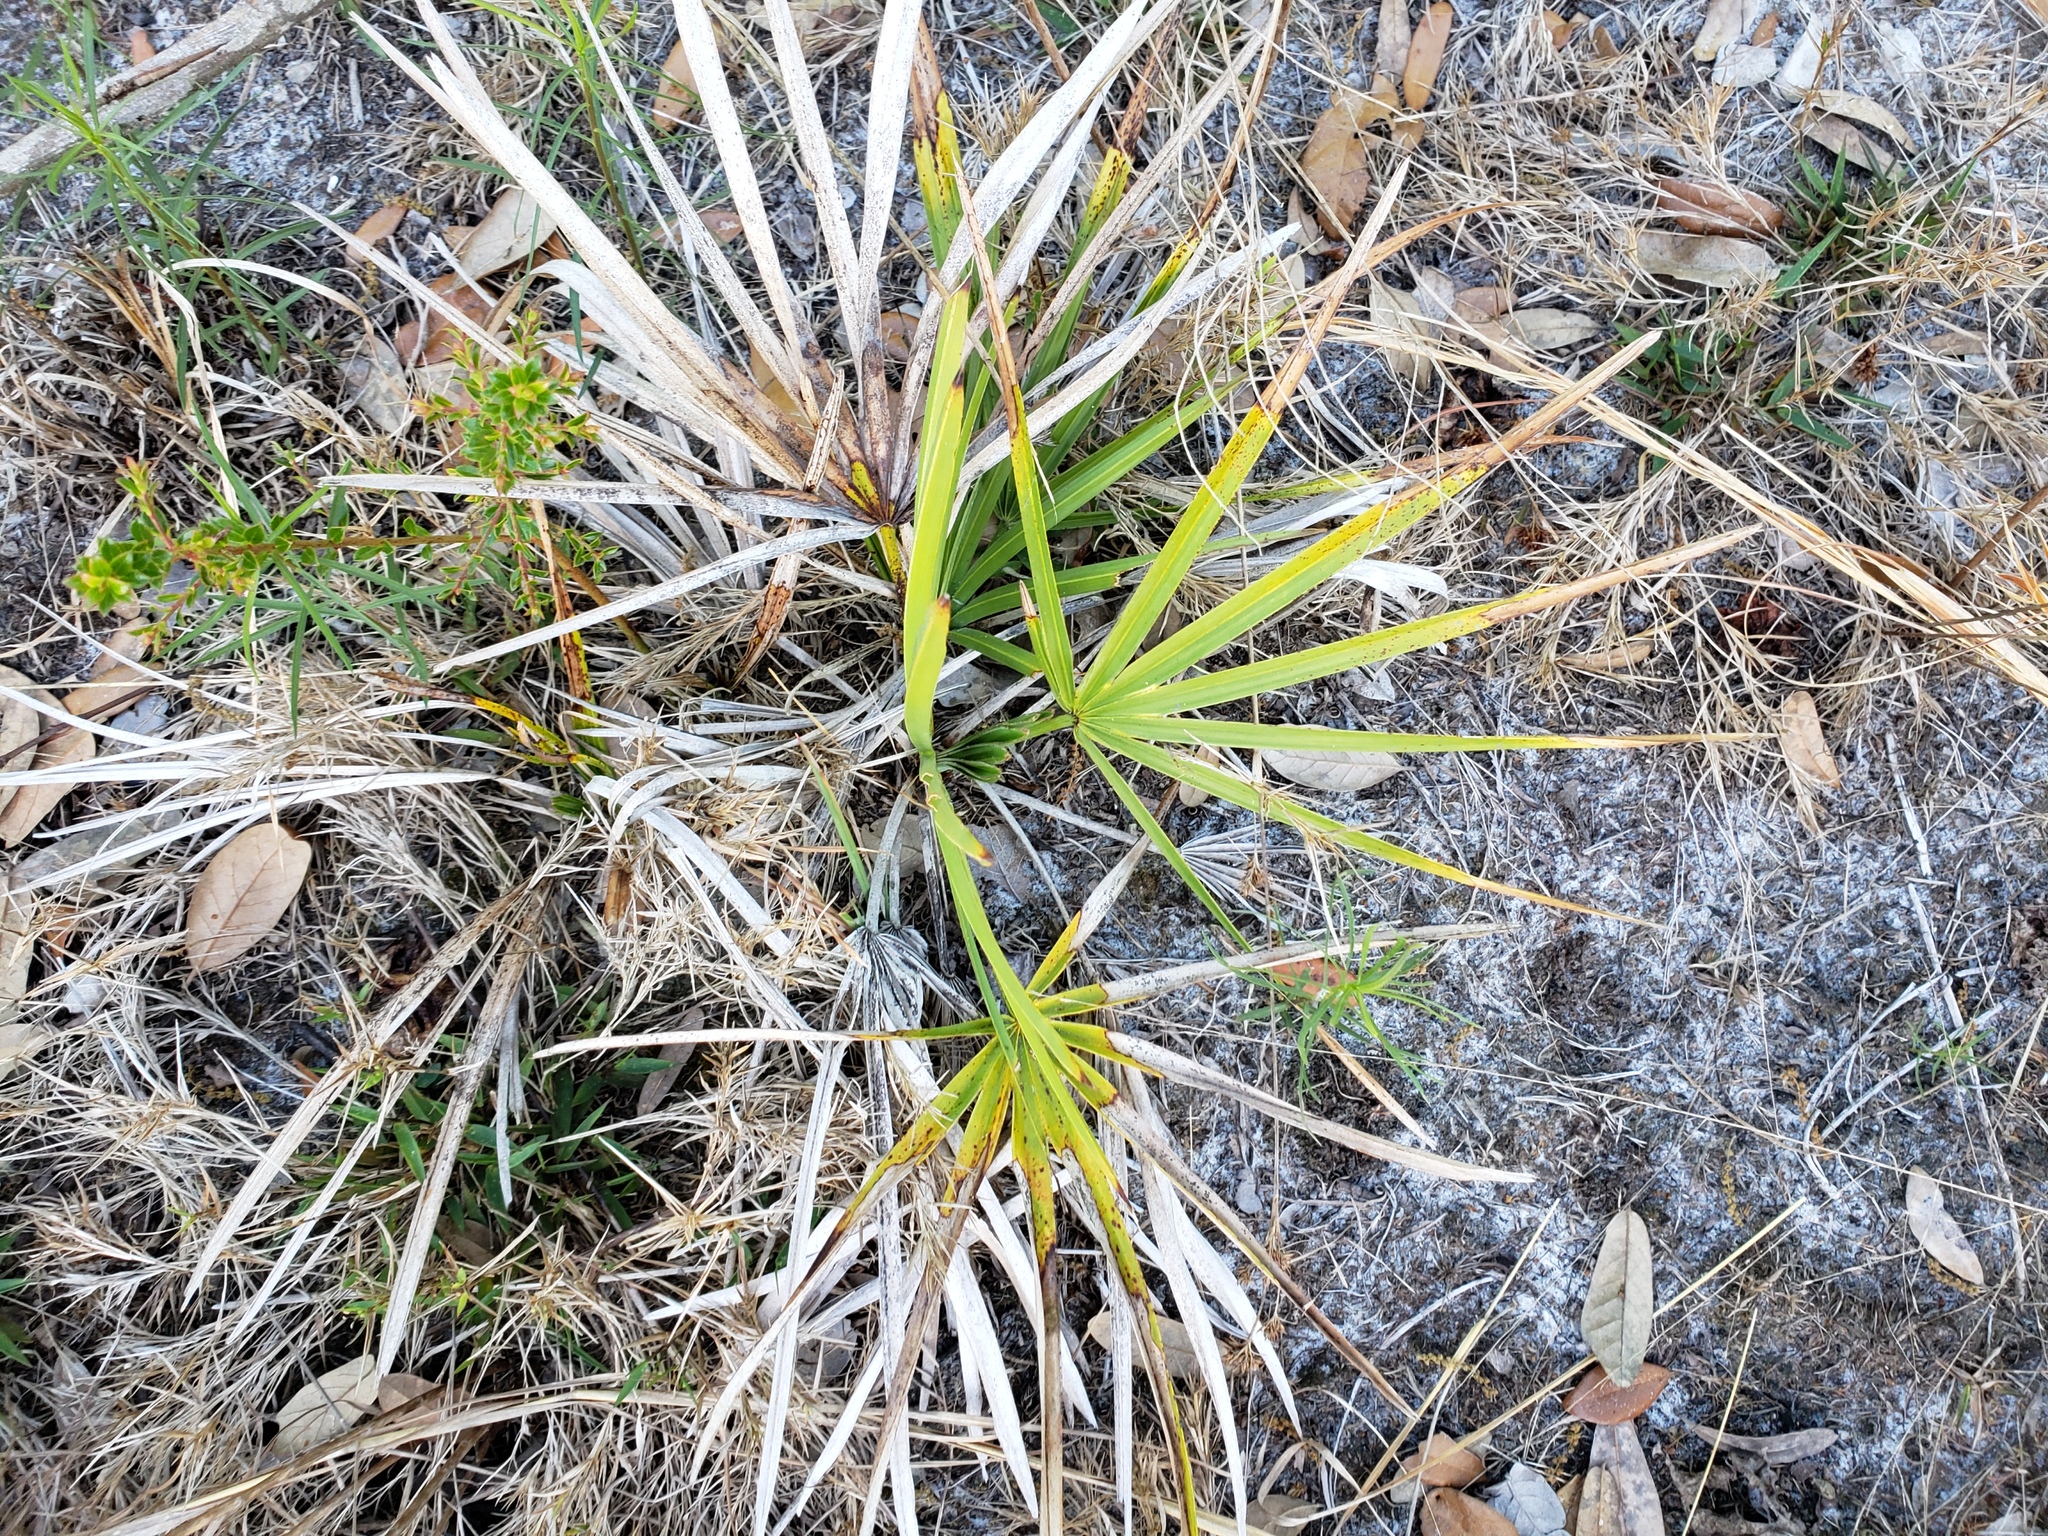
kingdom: Plantae
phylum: Tracheophyta
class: Liliopsida
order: Arecales
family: Arecaceae
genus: Serenoa
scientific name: Serenoa repens
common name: Saw-palmetto
